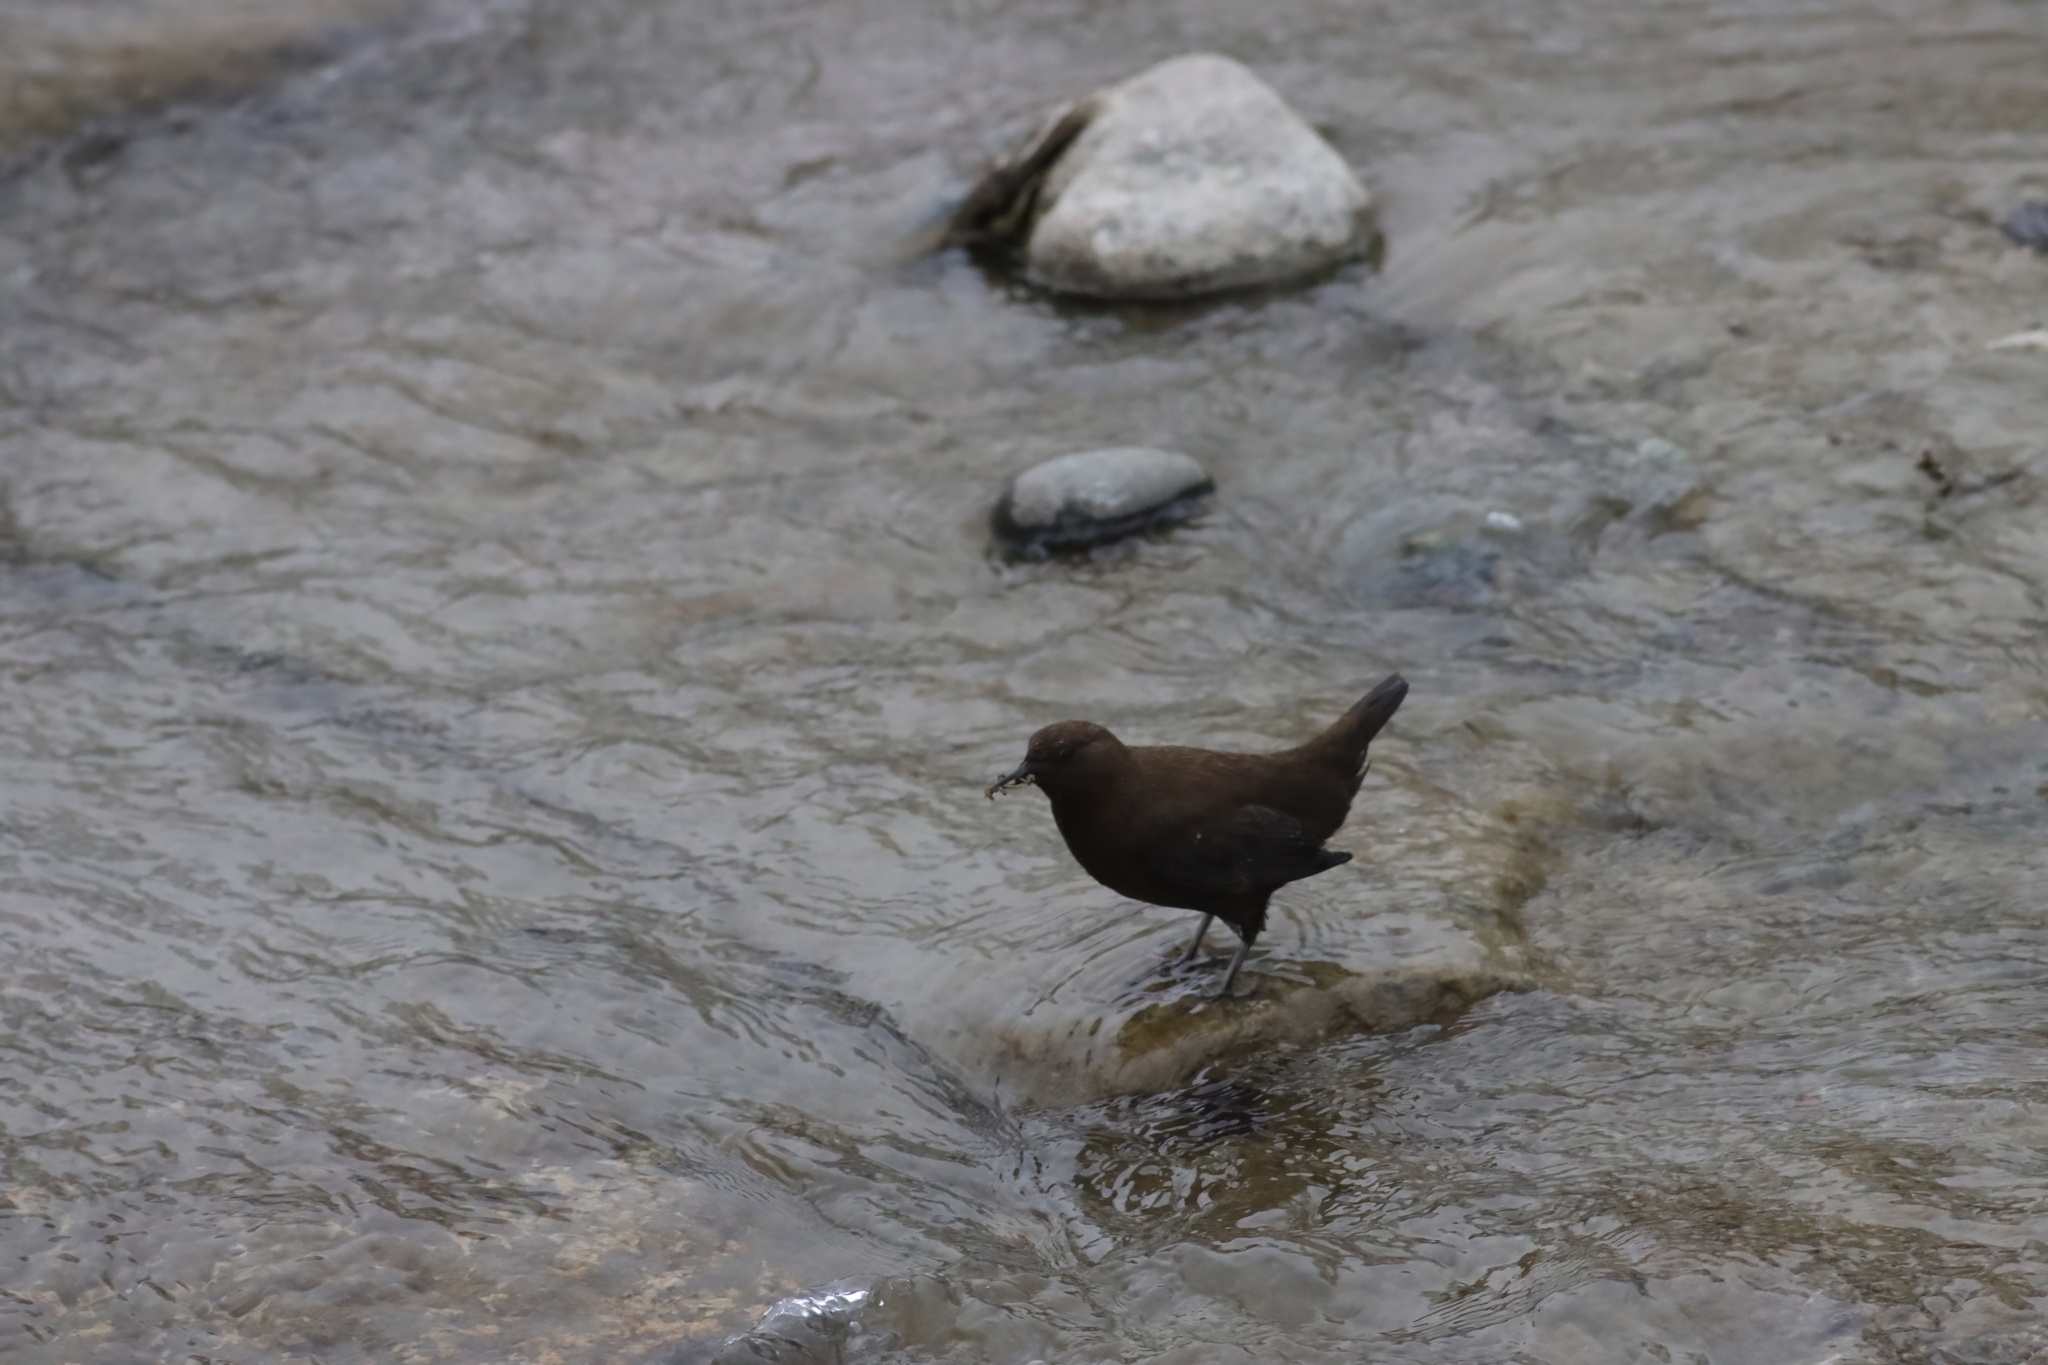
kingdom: Animalia
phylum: Chordata
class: Aves
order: Passeriformes
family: Cinclidae
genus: Cinclus
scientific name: Cinclus pallasii
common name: Brown dipper
